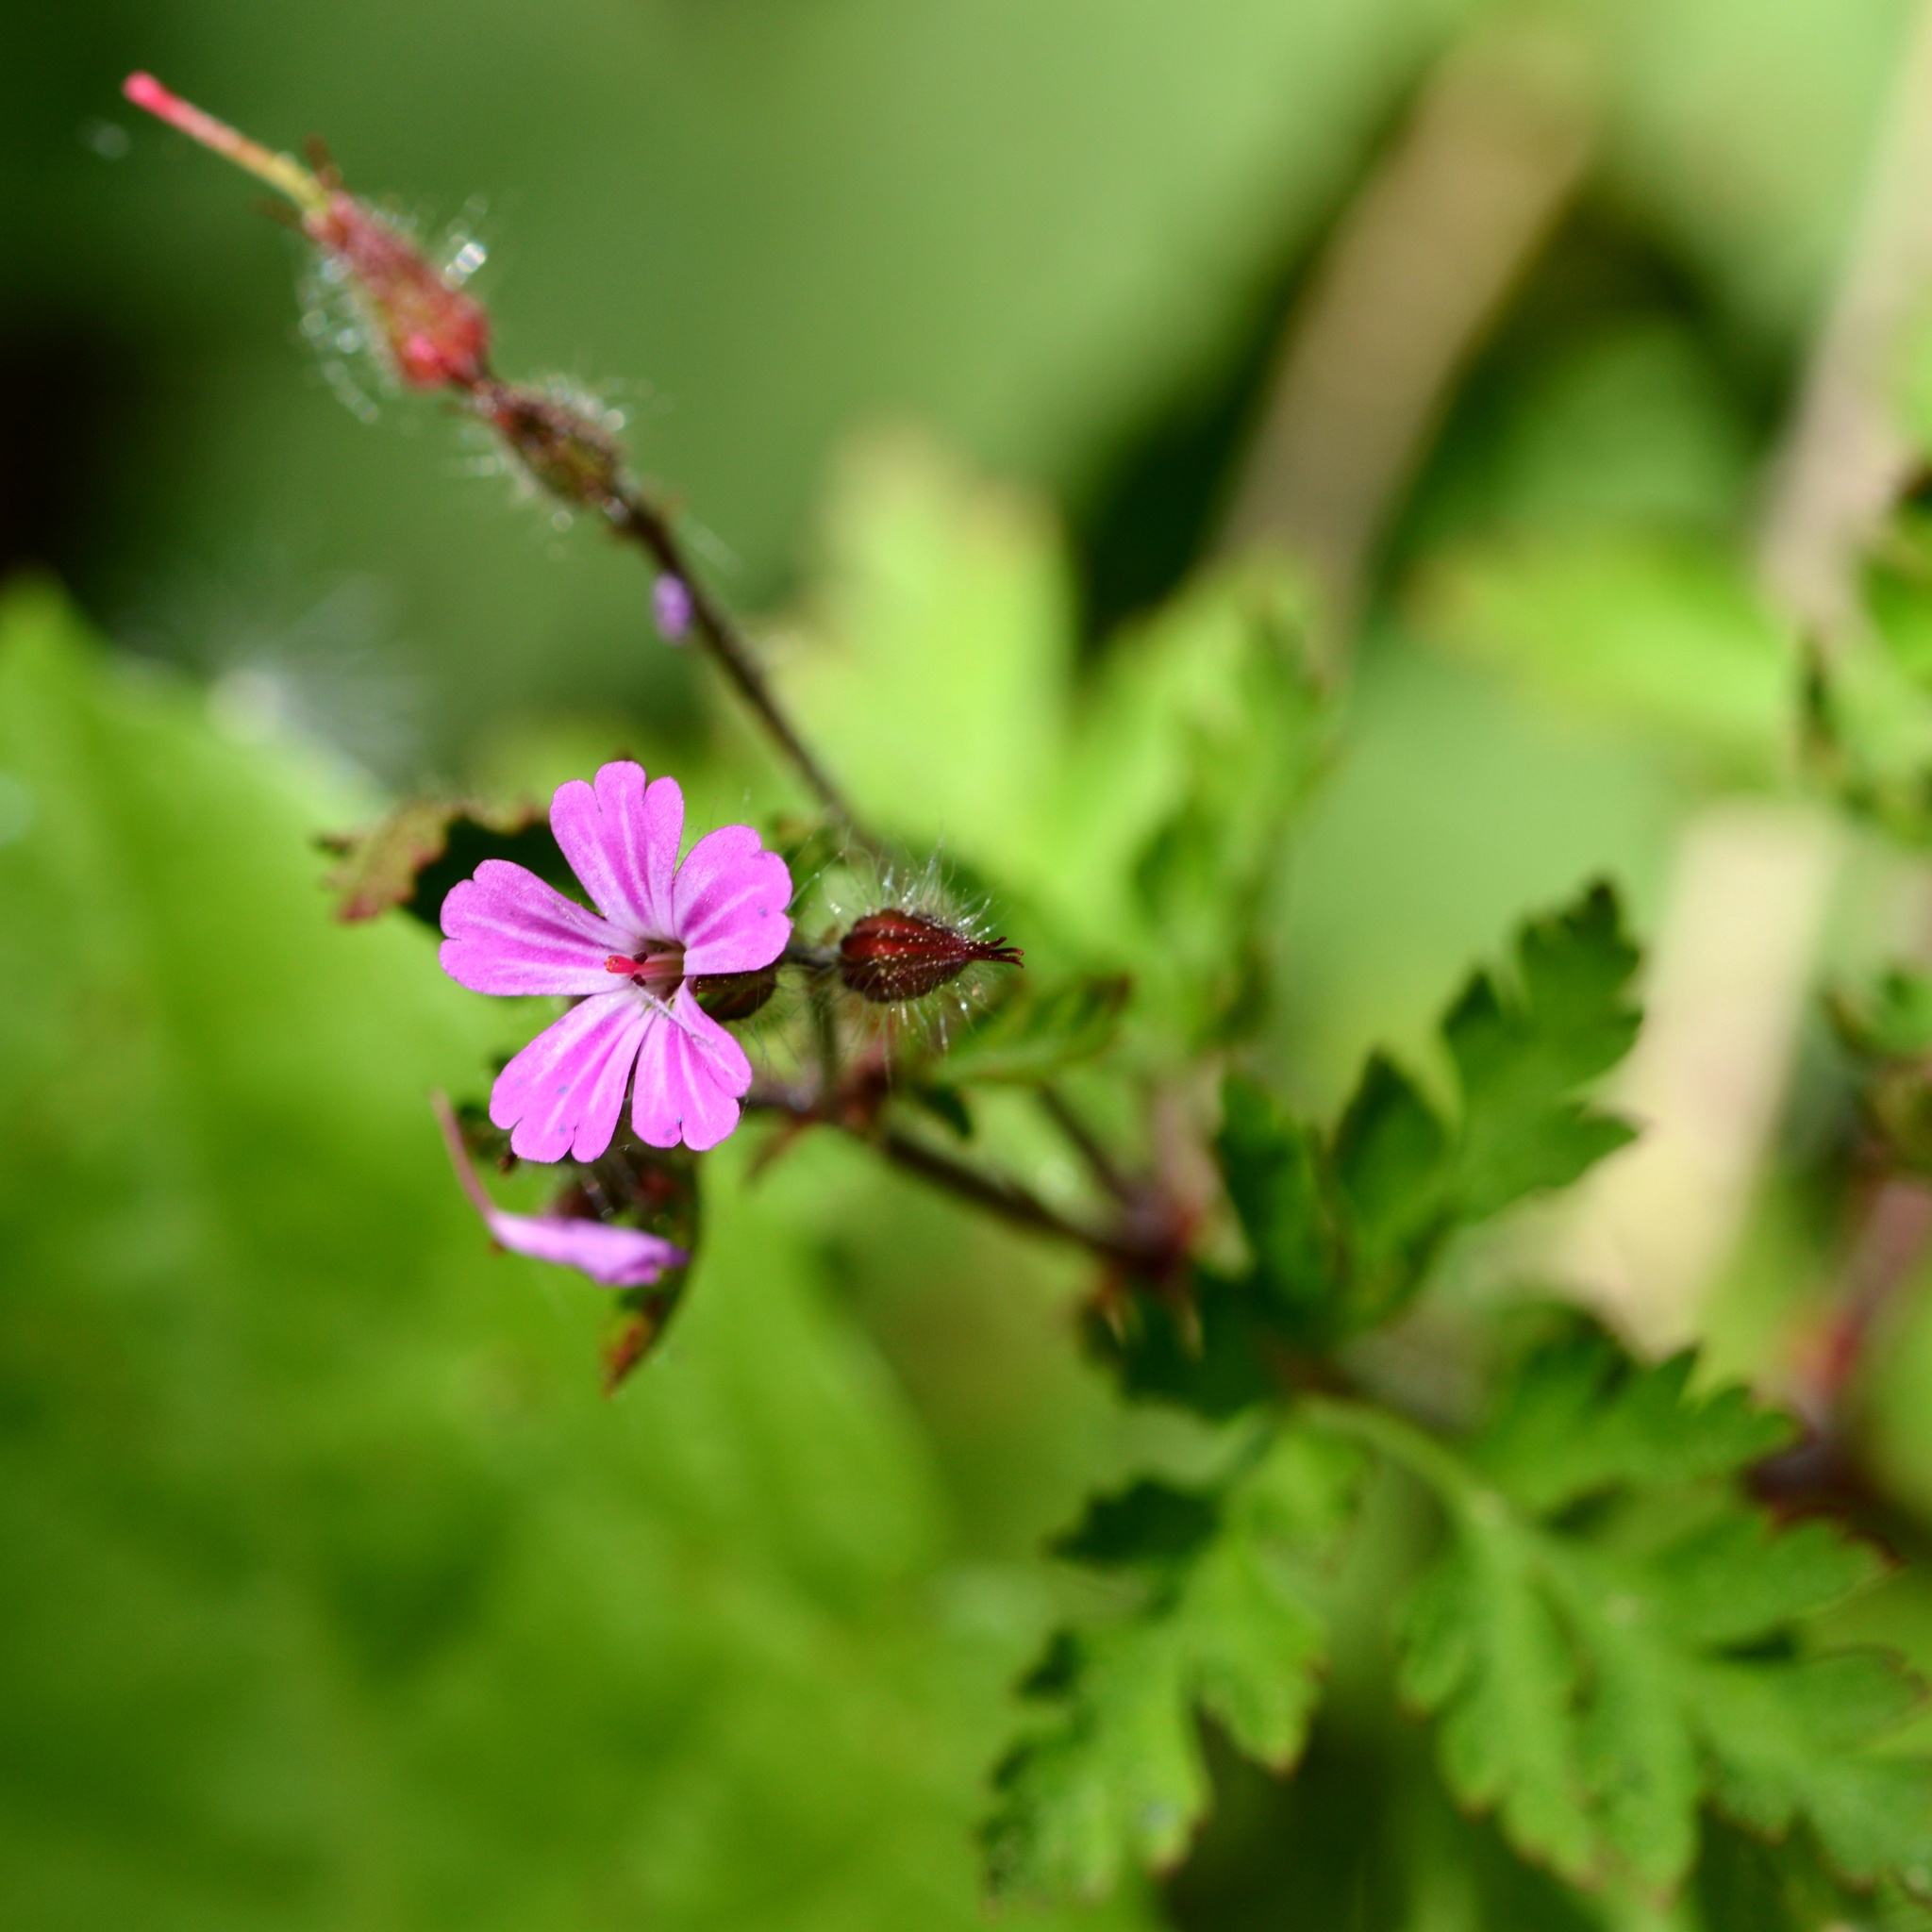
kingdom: Plantae
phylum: Tracheophyta
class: Magnoliopsida
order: Geraniales
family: Geraniaceae
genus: Geranium
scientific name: Geranium robertianum
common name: Herb-robert
